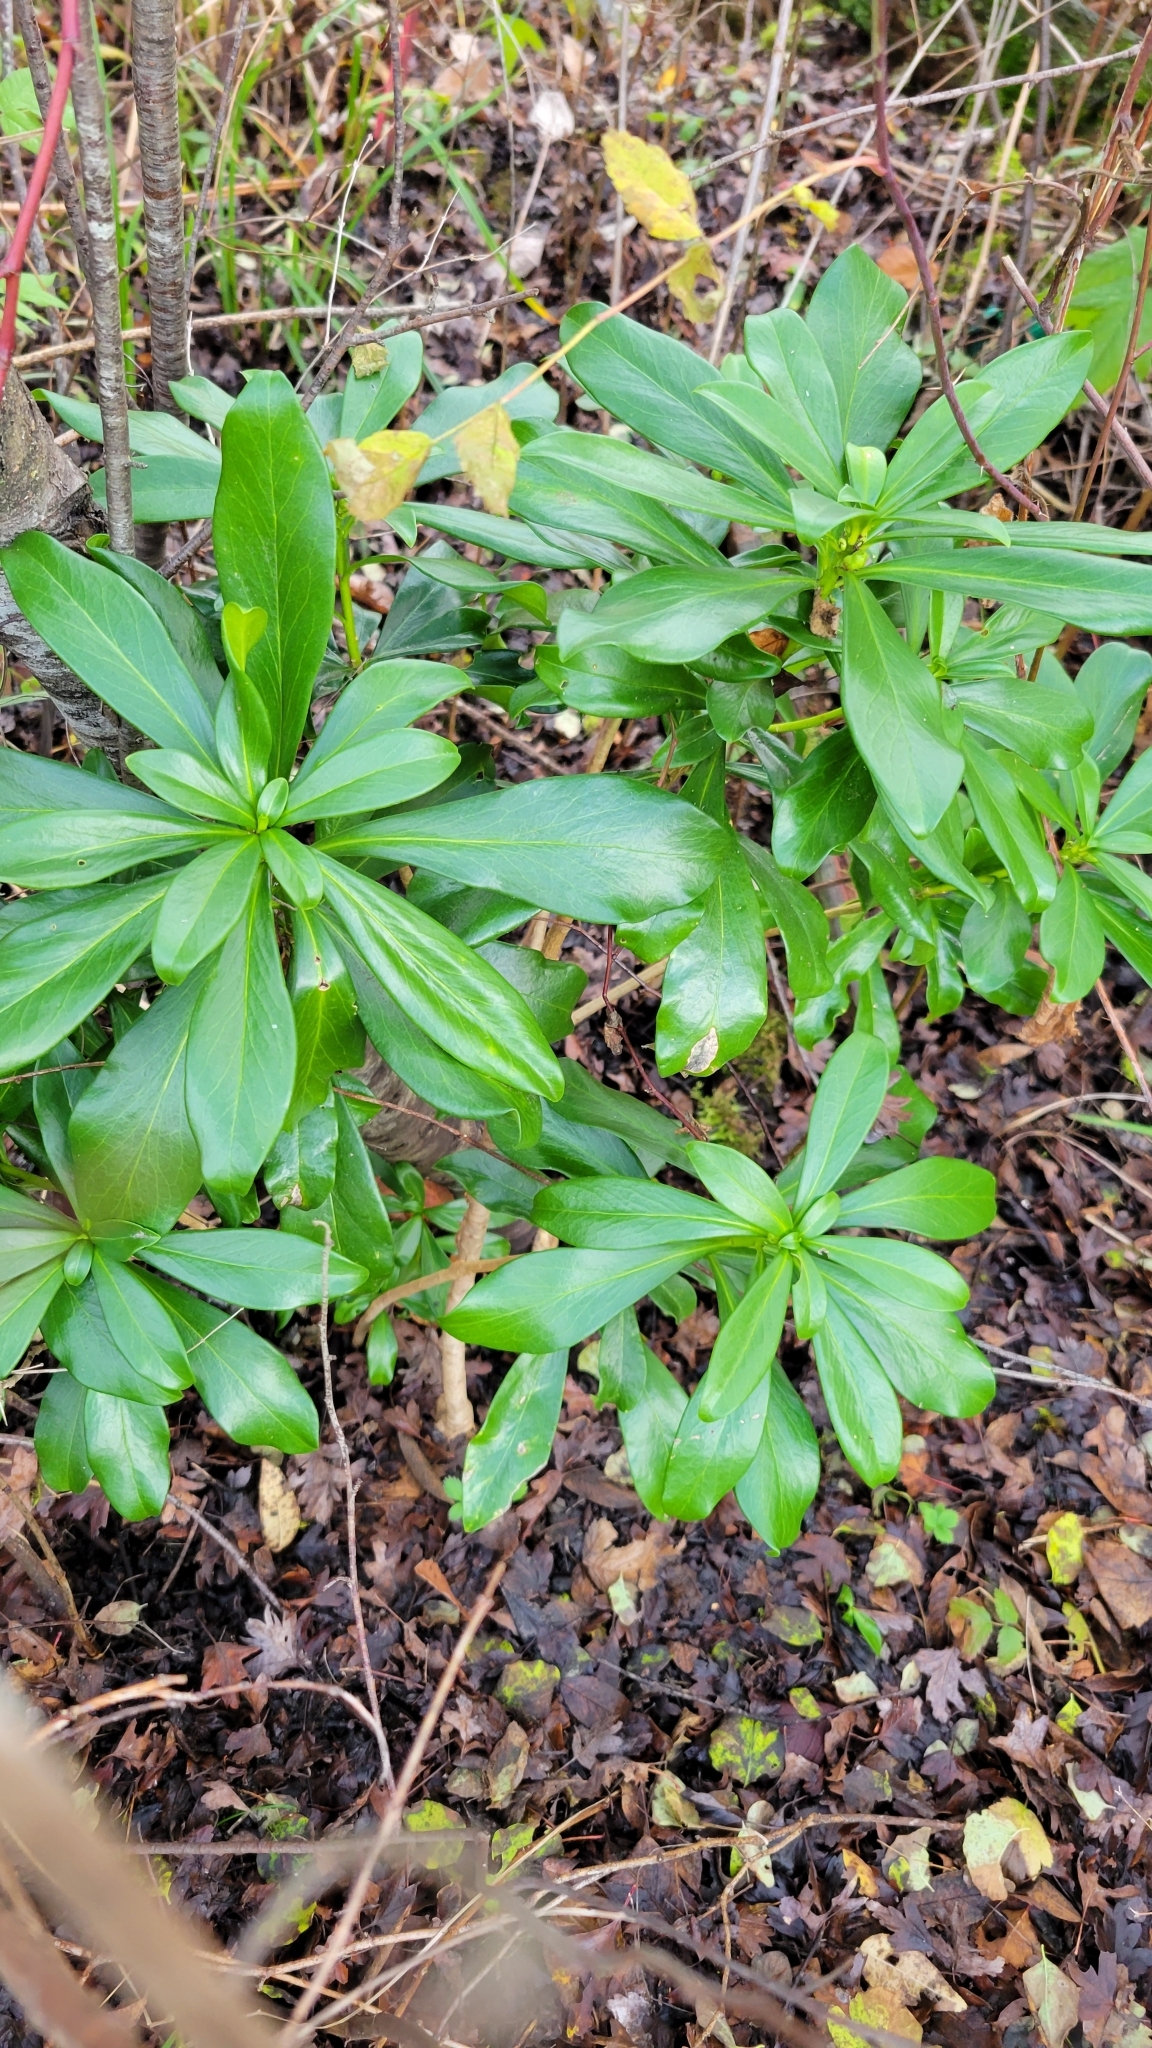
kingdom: Plantae
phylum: Tracheophyta
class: Magnoliopsida
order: Malvales
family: Thymelaeaceae
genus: Daphne
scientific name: Daphne laureola
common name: Spurge-laurel
